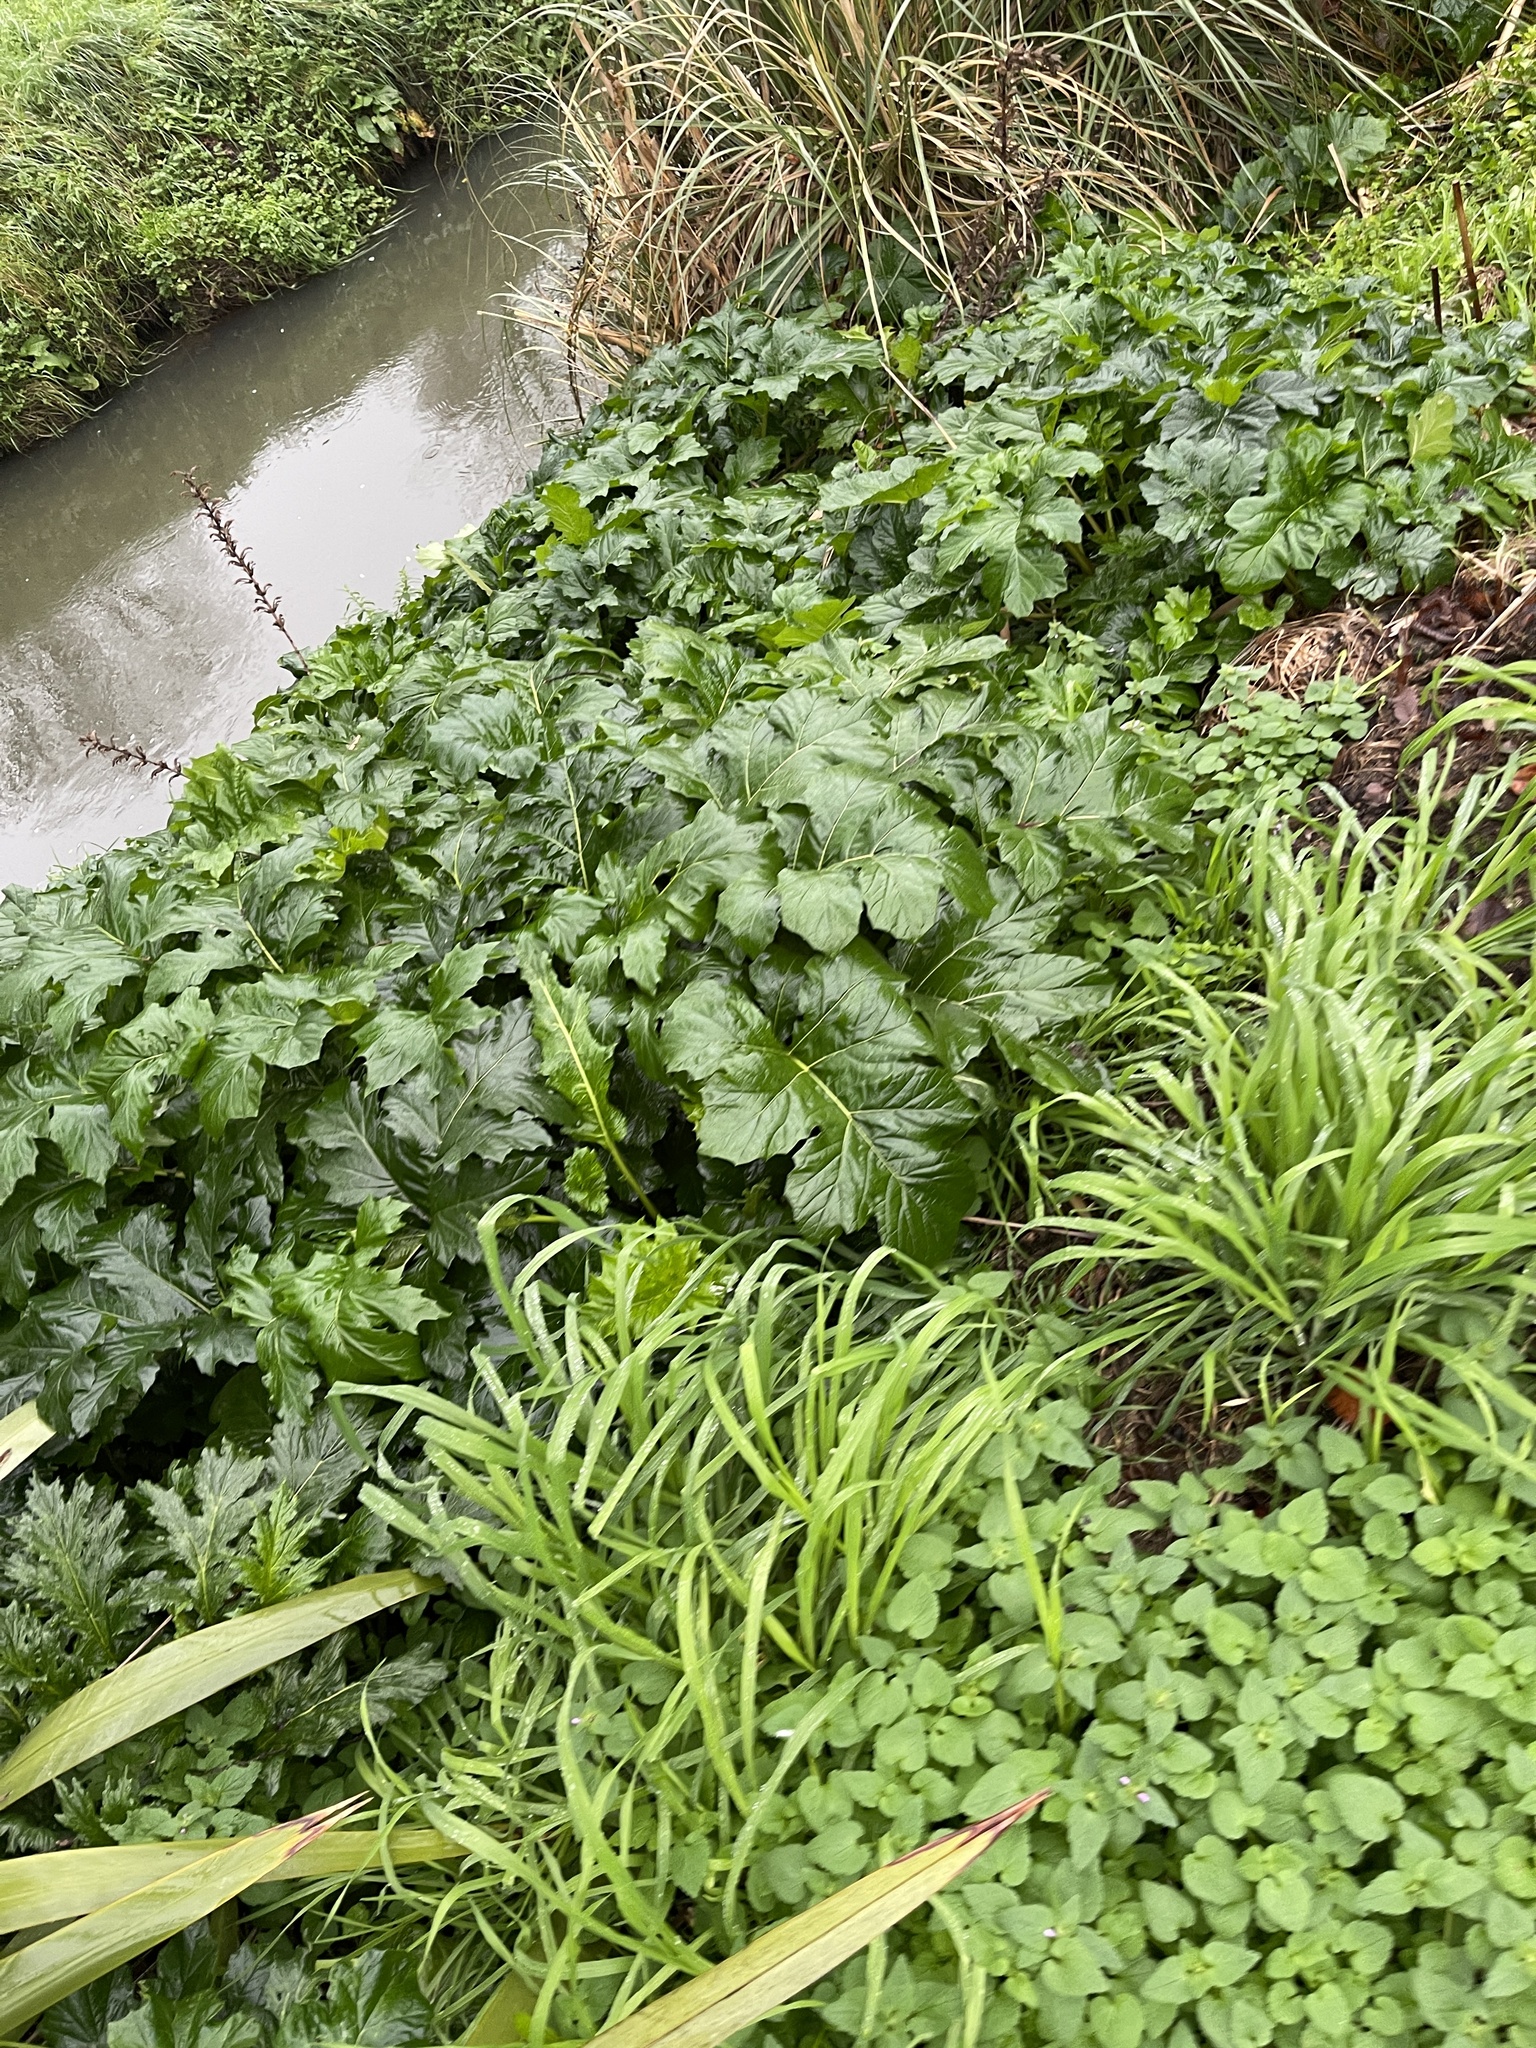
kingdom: Plantae
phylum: Tracheophyta
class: Magnoliopsida
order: Lamiales
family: Acanthaceae
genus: Acanthus
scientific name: Acanthus mollis
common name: Bear's-breech
